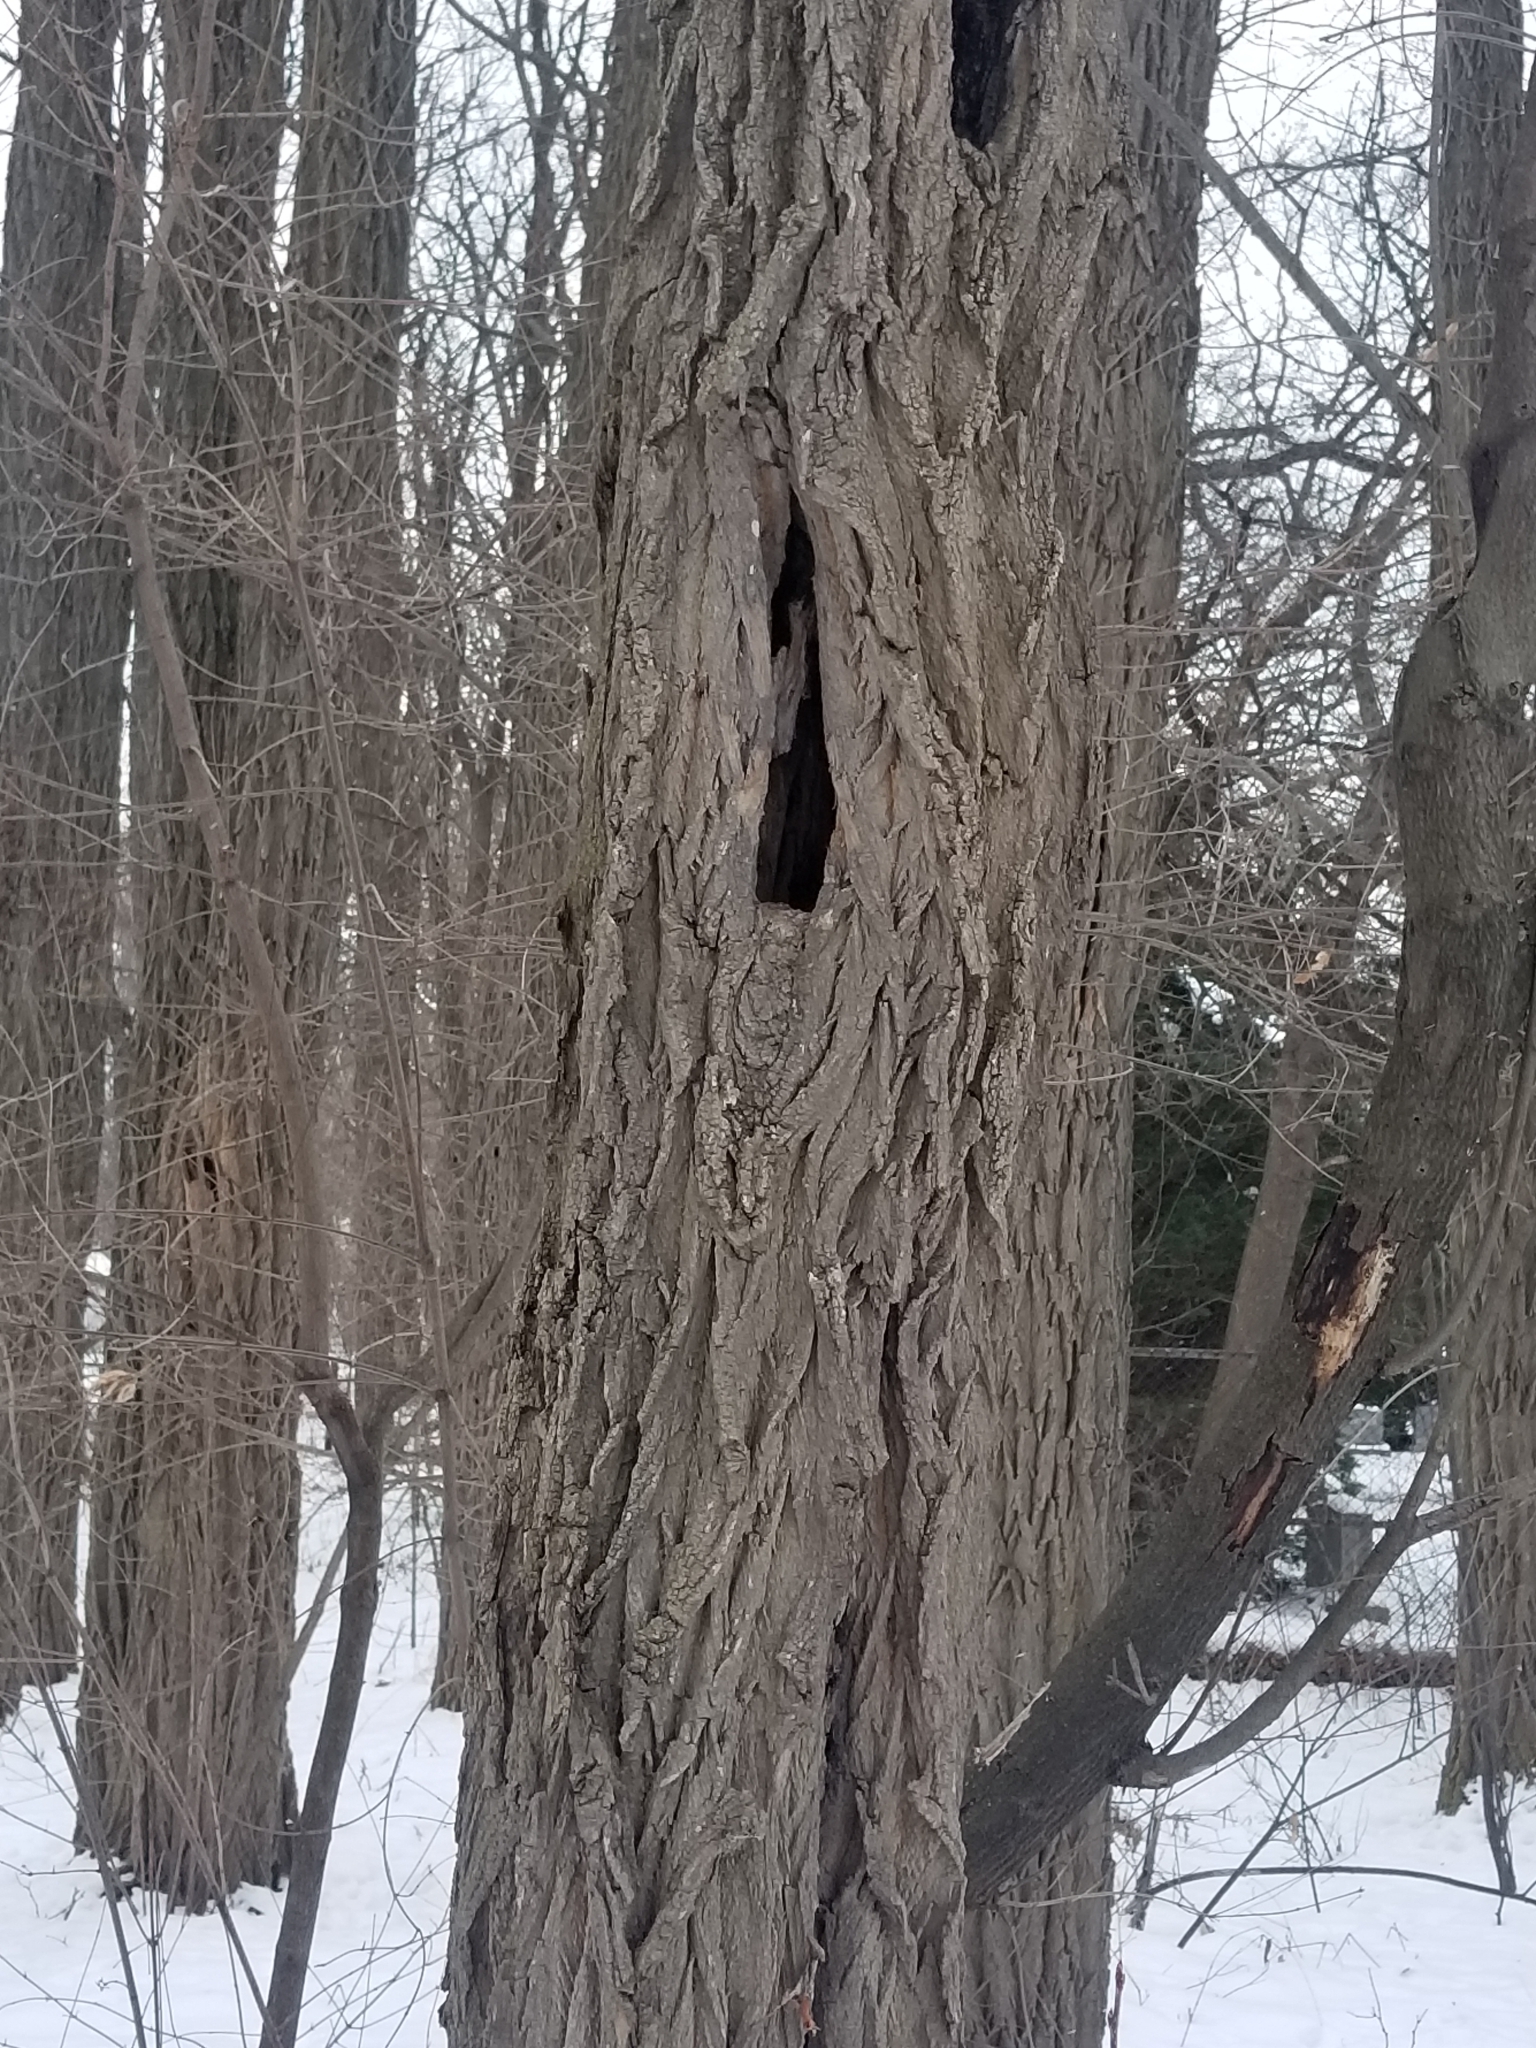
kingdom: Plantae
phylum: Tracheophyta
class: Magnoliopsida
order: Fabales
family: Fabaceae
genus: Robinia
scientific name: Robinia pseudoacacia
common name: Black locust
